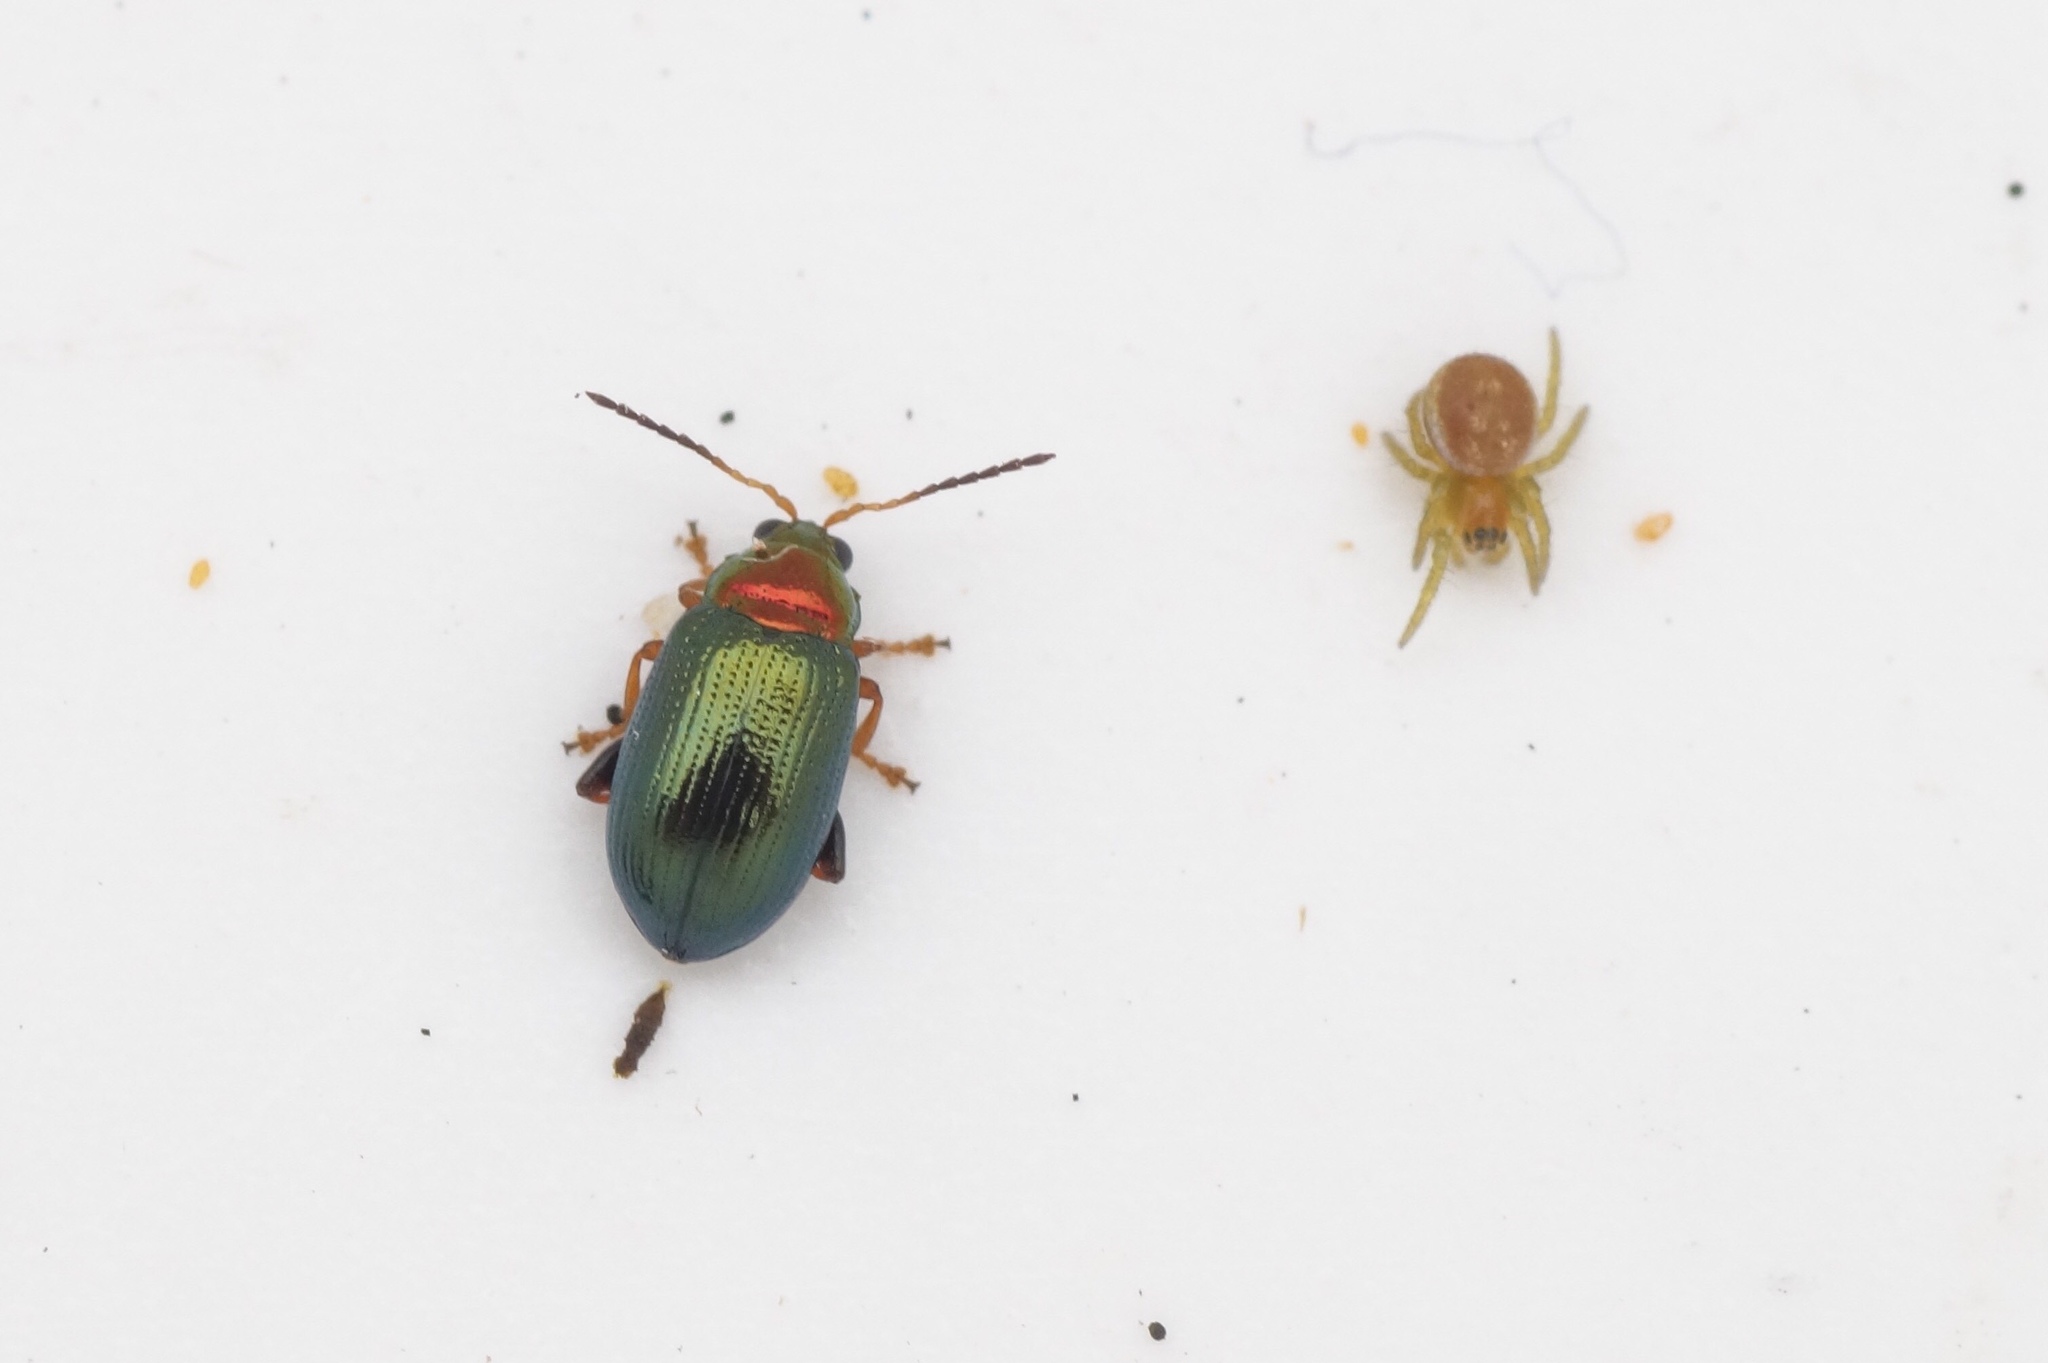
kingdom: Animalia
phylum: Arthropoda
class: Insecta
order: Coleoptera
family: Chrysomelidae
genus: Crepidodera
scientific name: Crepidodera aurata
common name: Willow flea beetle
